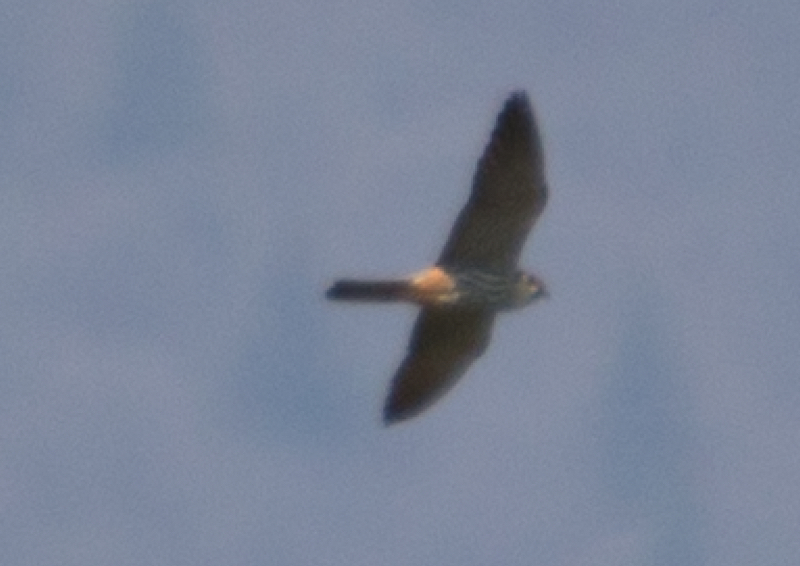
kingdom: Animalia
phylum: Chordata
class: Aves
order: Falconiformes
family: Falconidae
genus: Falco
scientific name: Falco subbuteo
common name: Eurasian hobby
